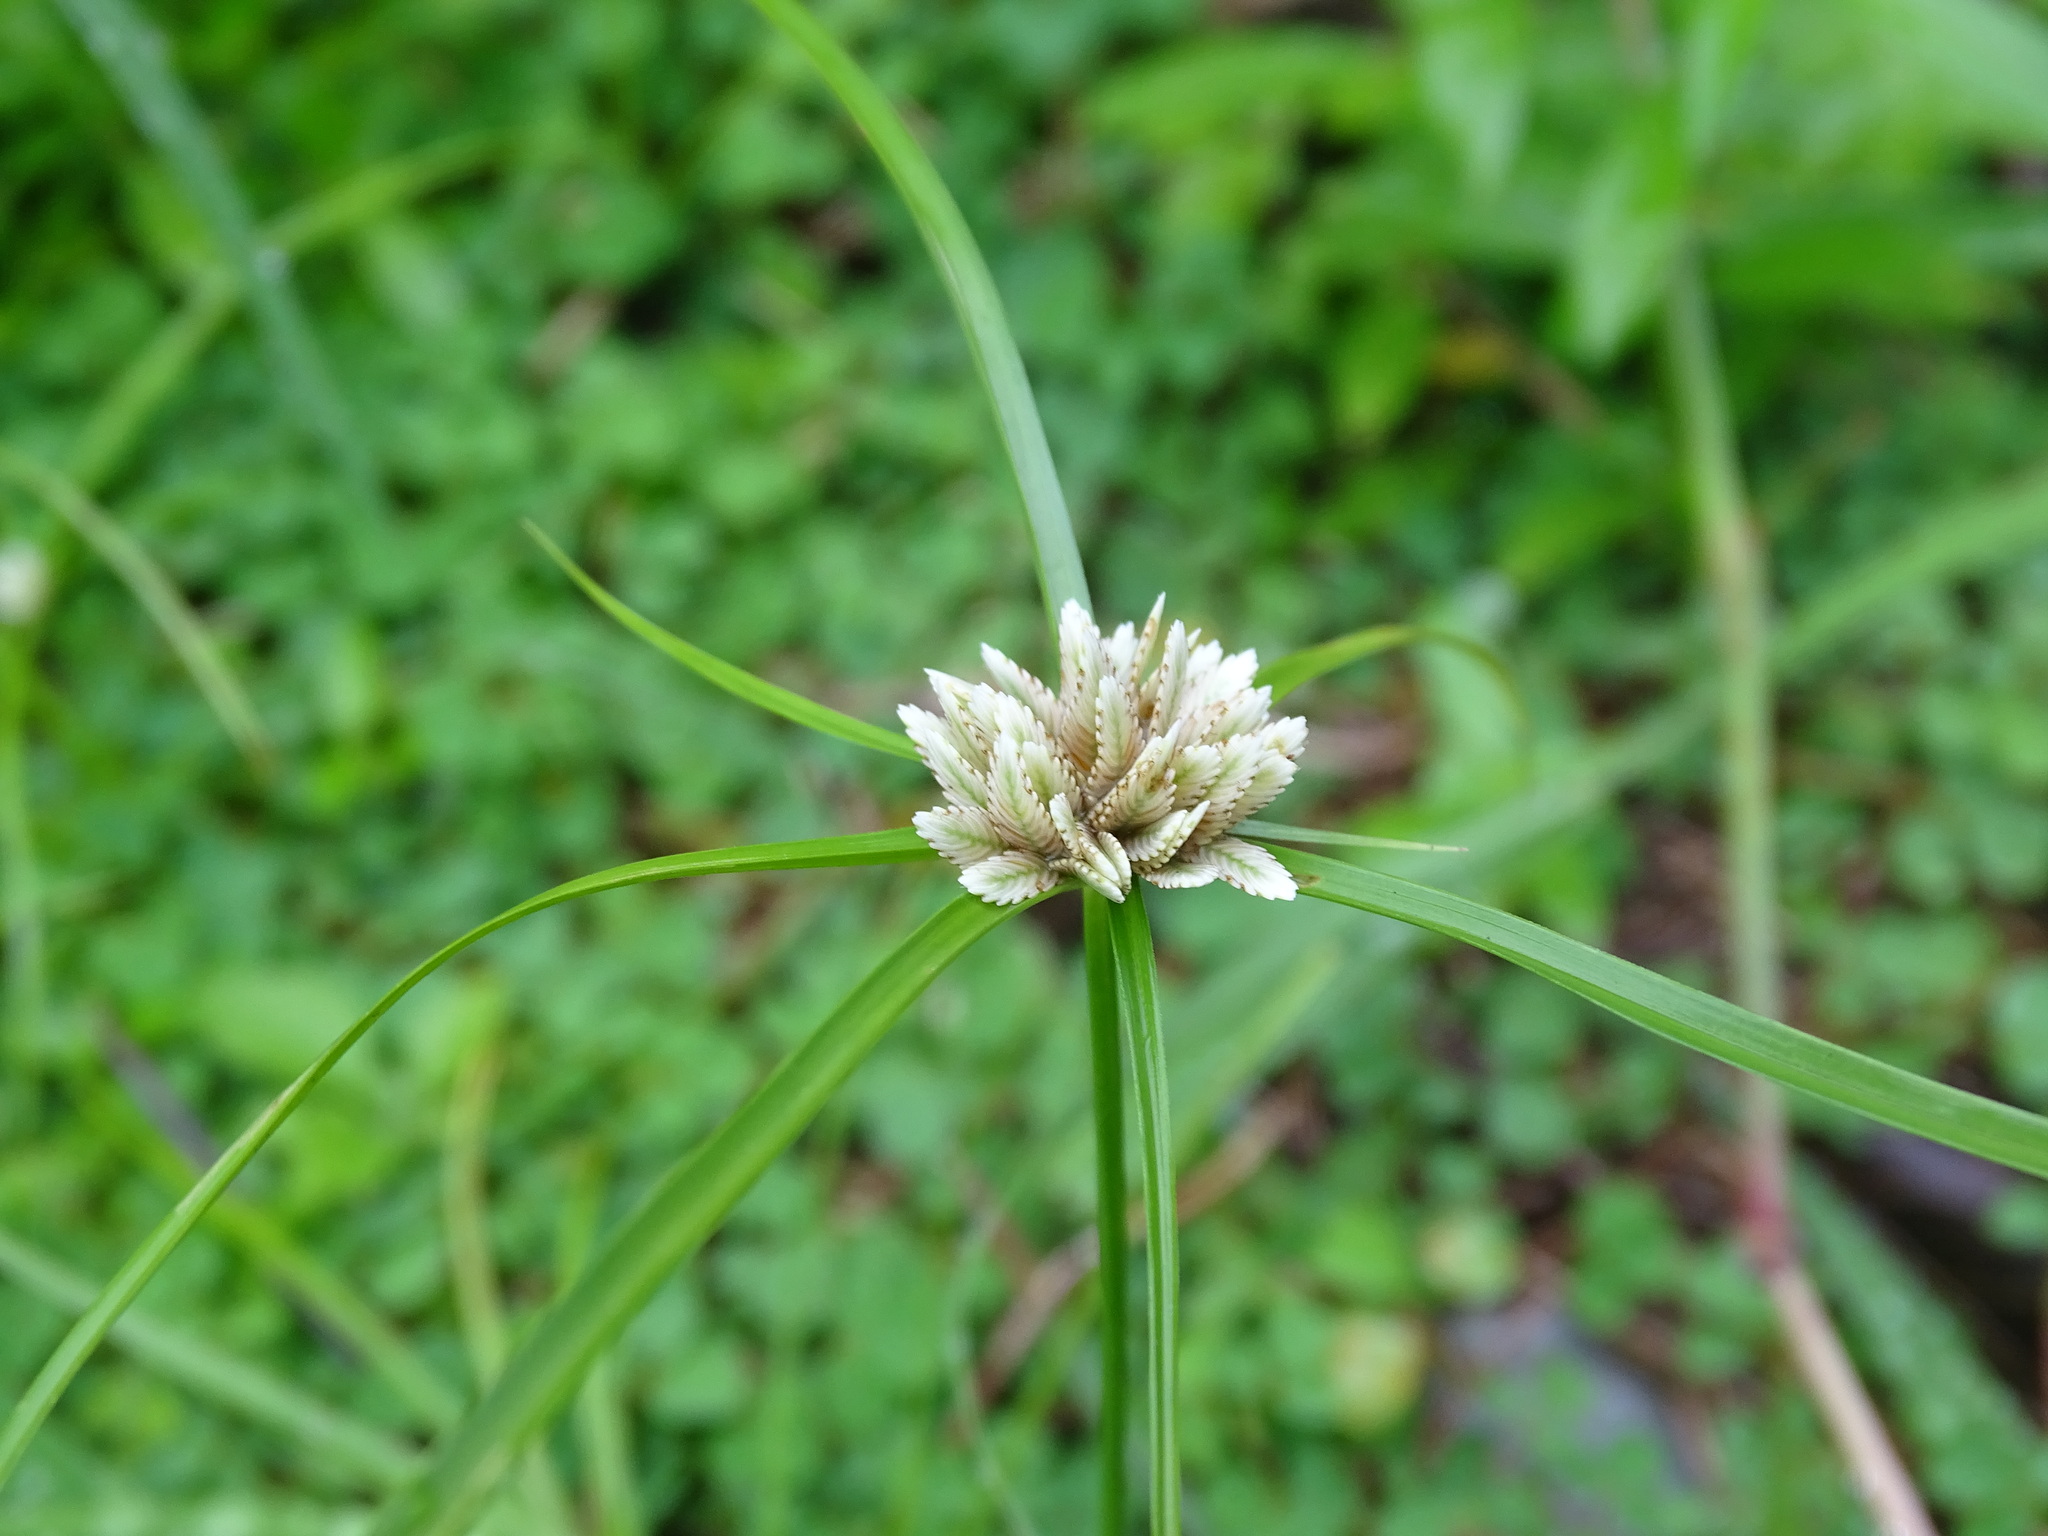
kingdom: Plantae
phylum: Tracheophyta
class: Liliopsida
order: Poales
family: Cyperaceae
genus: Cyperus
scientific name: Cyperus seslerioides
